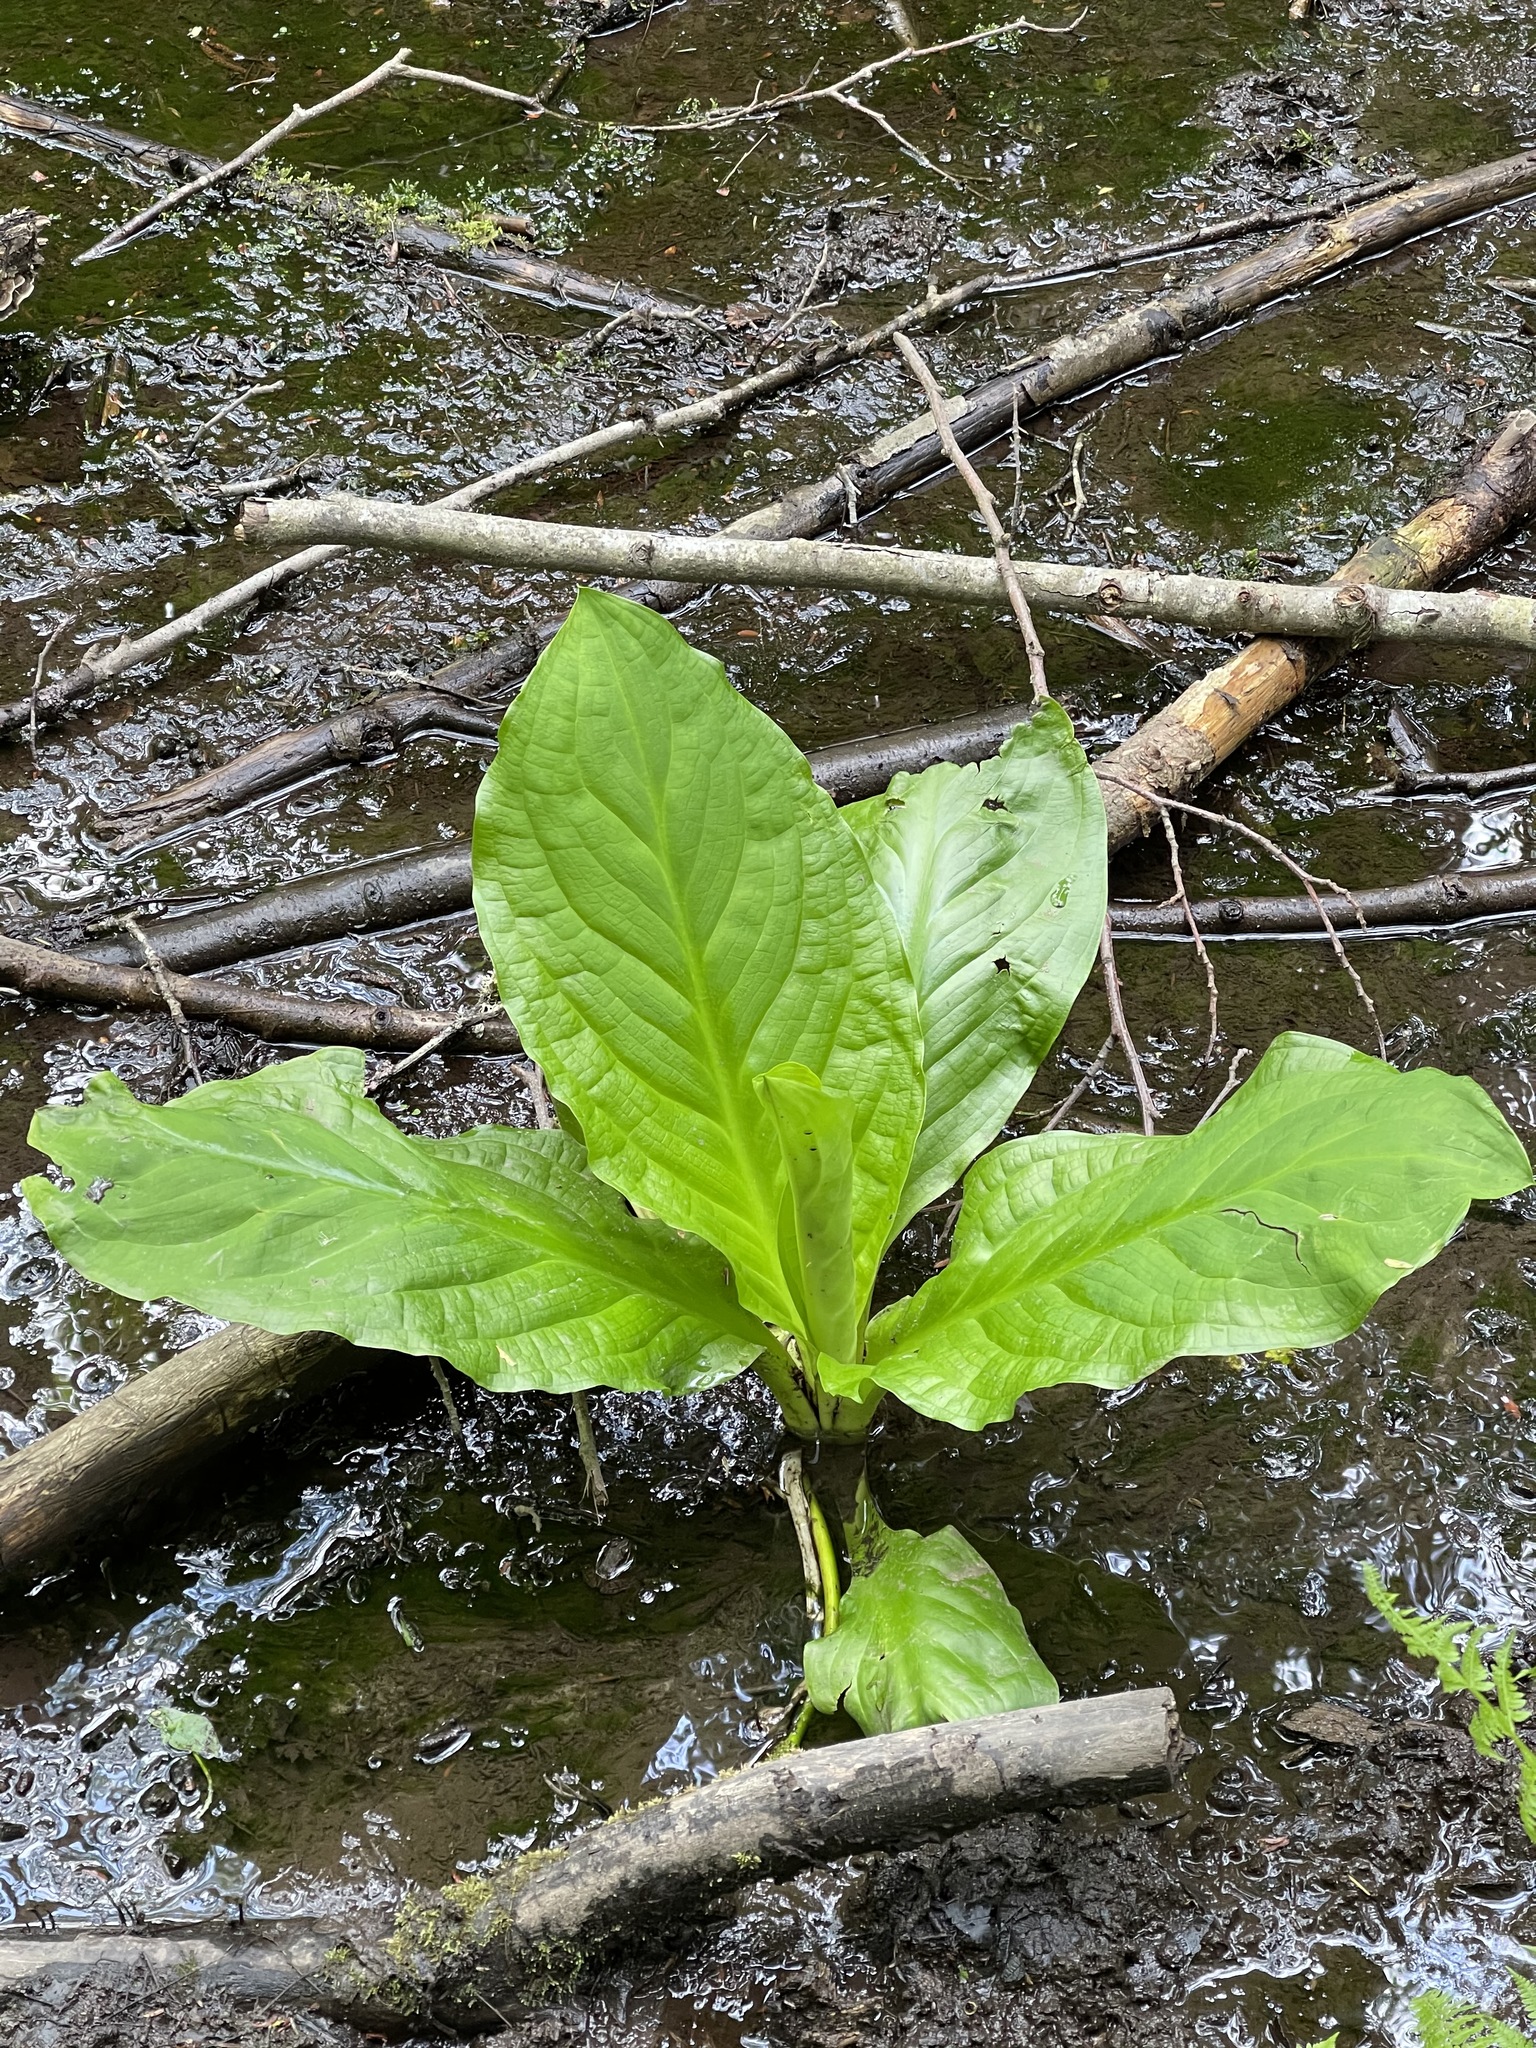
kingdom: Plantae
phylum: Tracheophyta
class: Liliopsida
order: Alismatales
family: Araceae
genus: Lysichiton
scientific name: Lysichiton americanus
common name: American skunk cabbage
